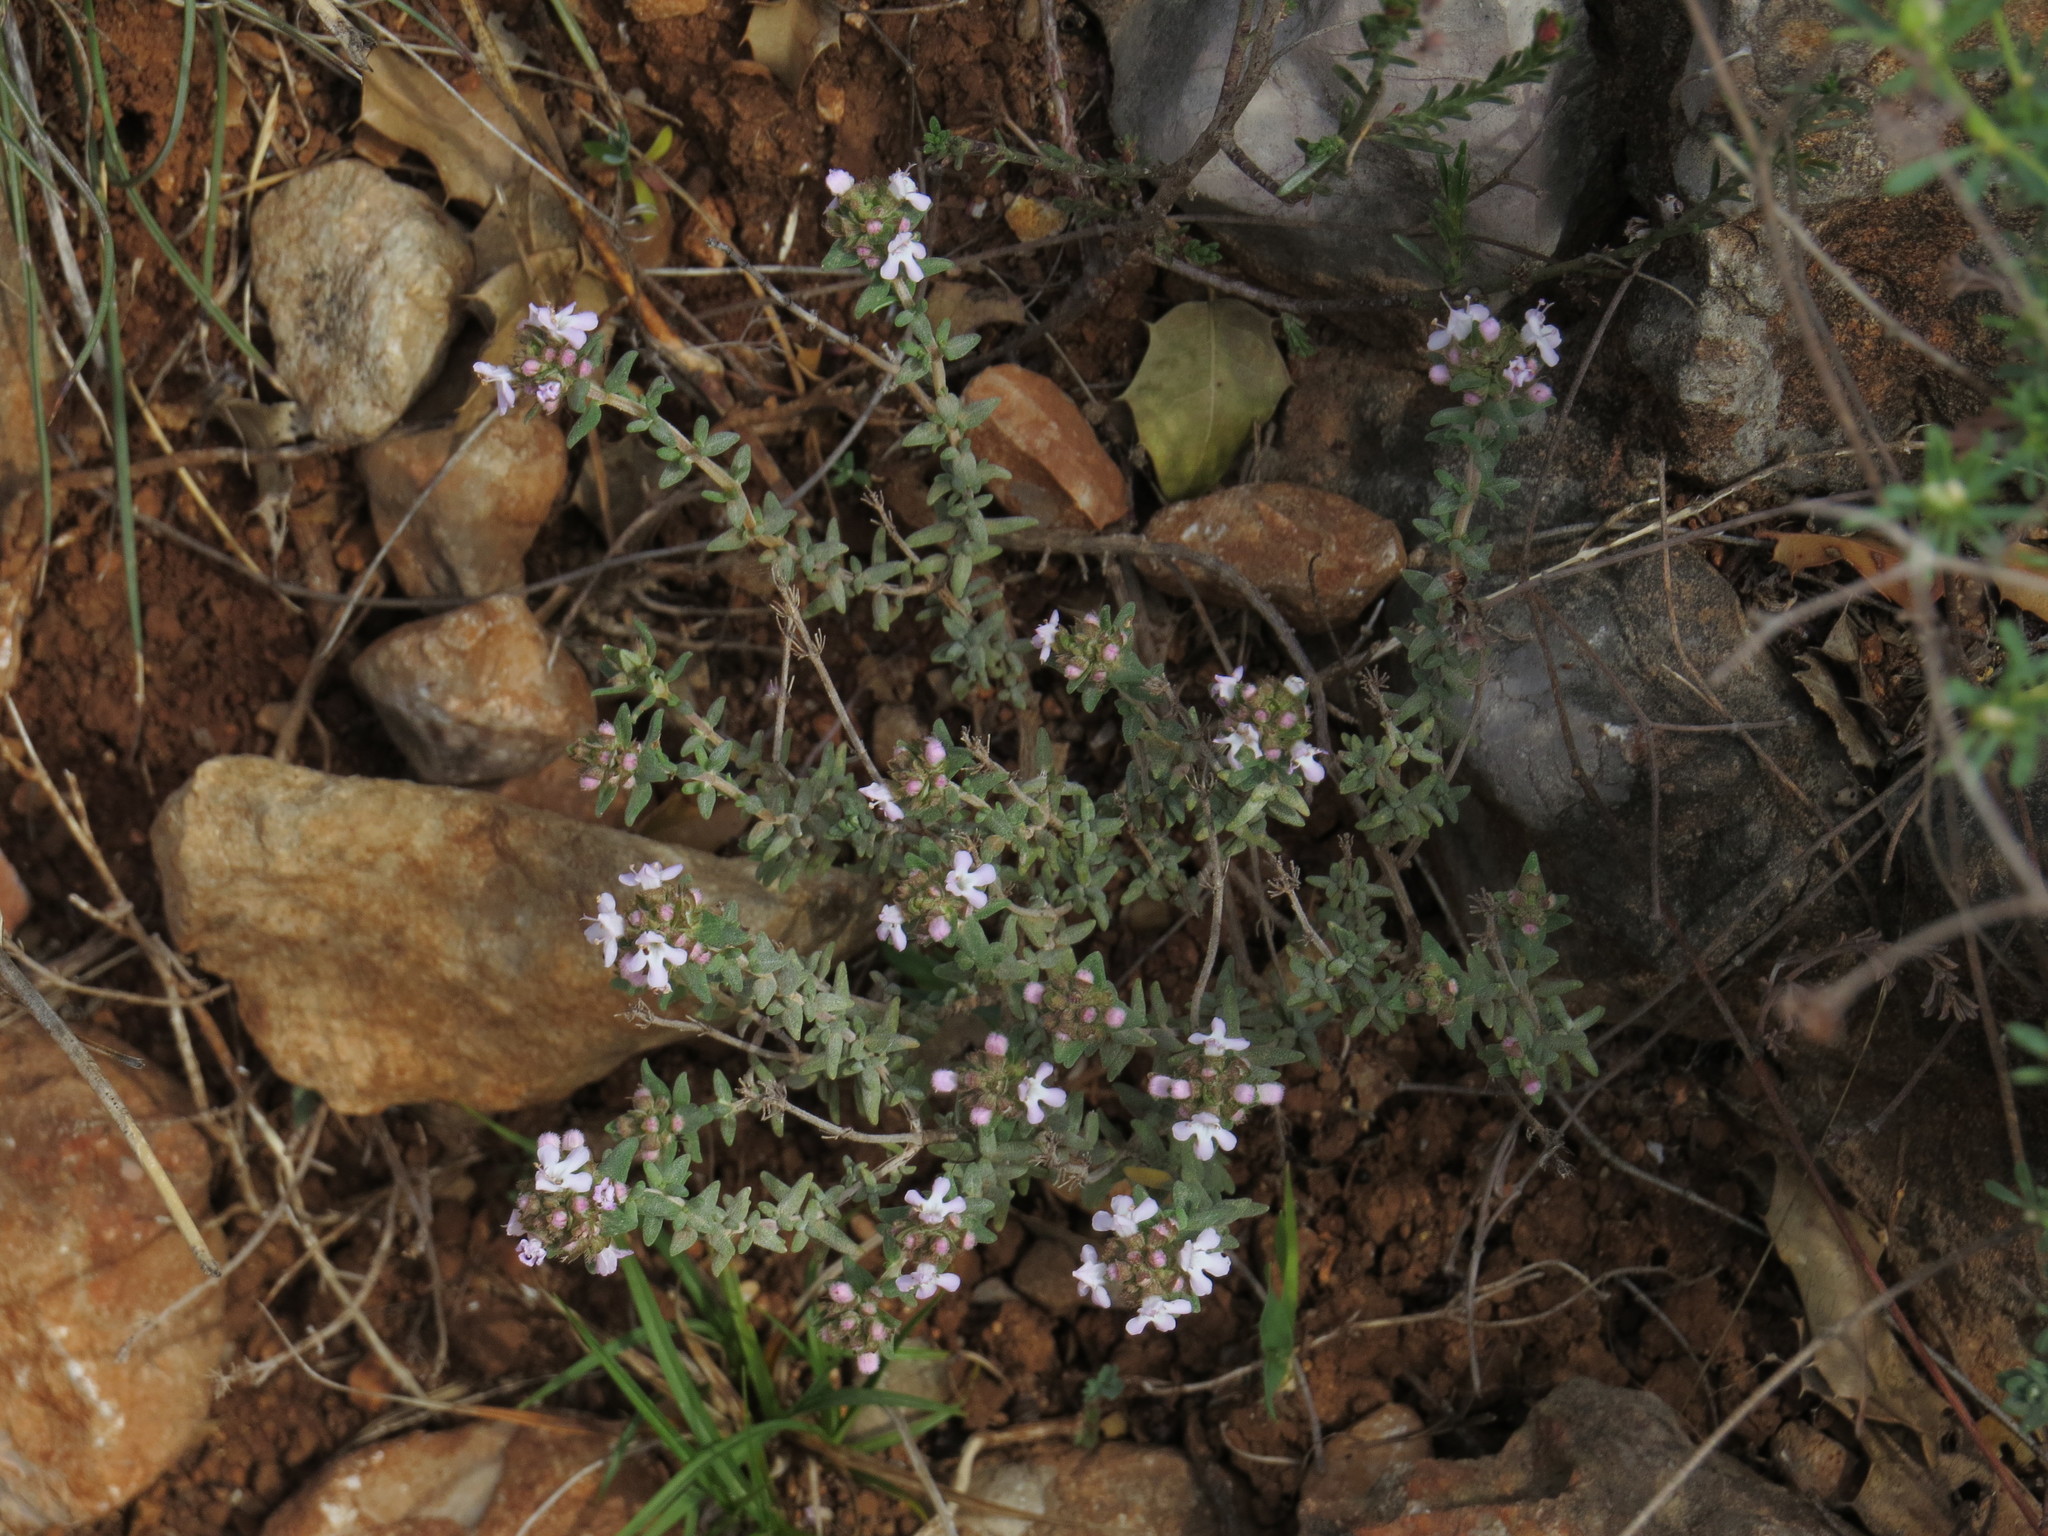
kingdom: Plantae
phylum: Tracheophyta
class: Magnoliopsida
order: Lamiales
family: Lamiaceae
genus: Thymus
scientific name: Thymus vulgaris
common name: Garden thyme
